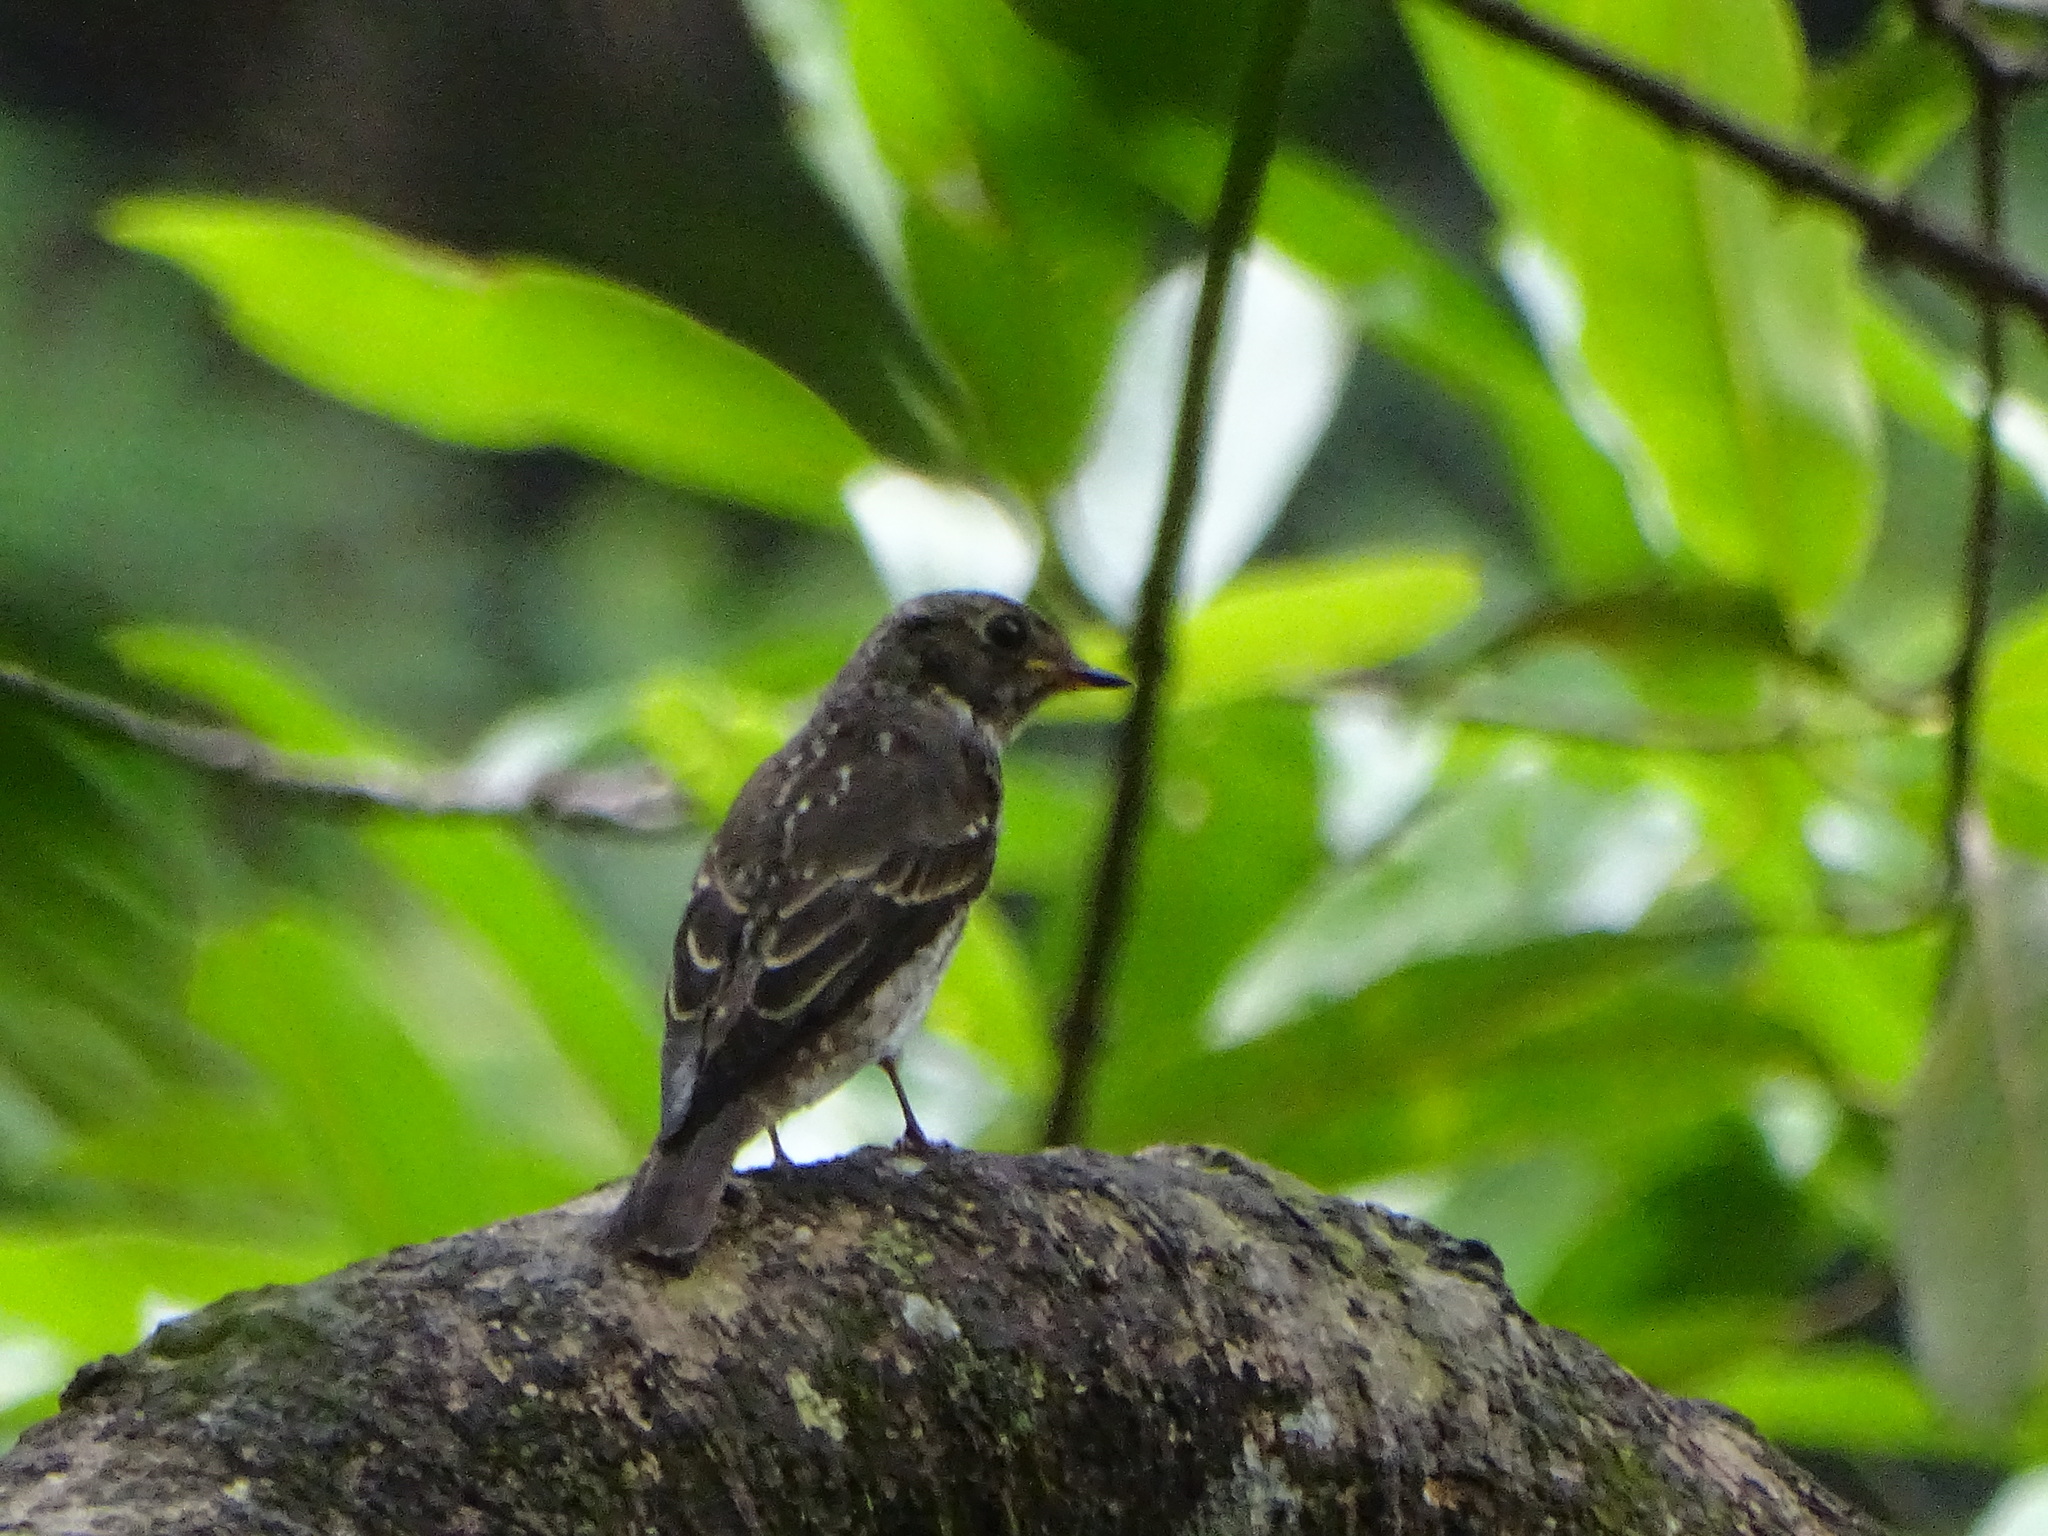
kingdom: Animalia
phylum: Chordata
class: Aves
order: Passeriformes
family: Muscicapidae
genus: Muscicapa
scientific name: Muscicapa sibirica
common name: Dark-sided flycatcher
